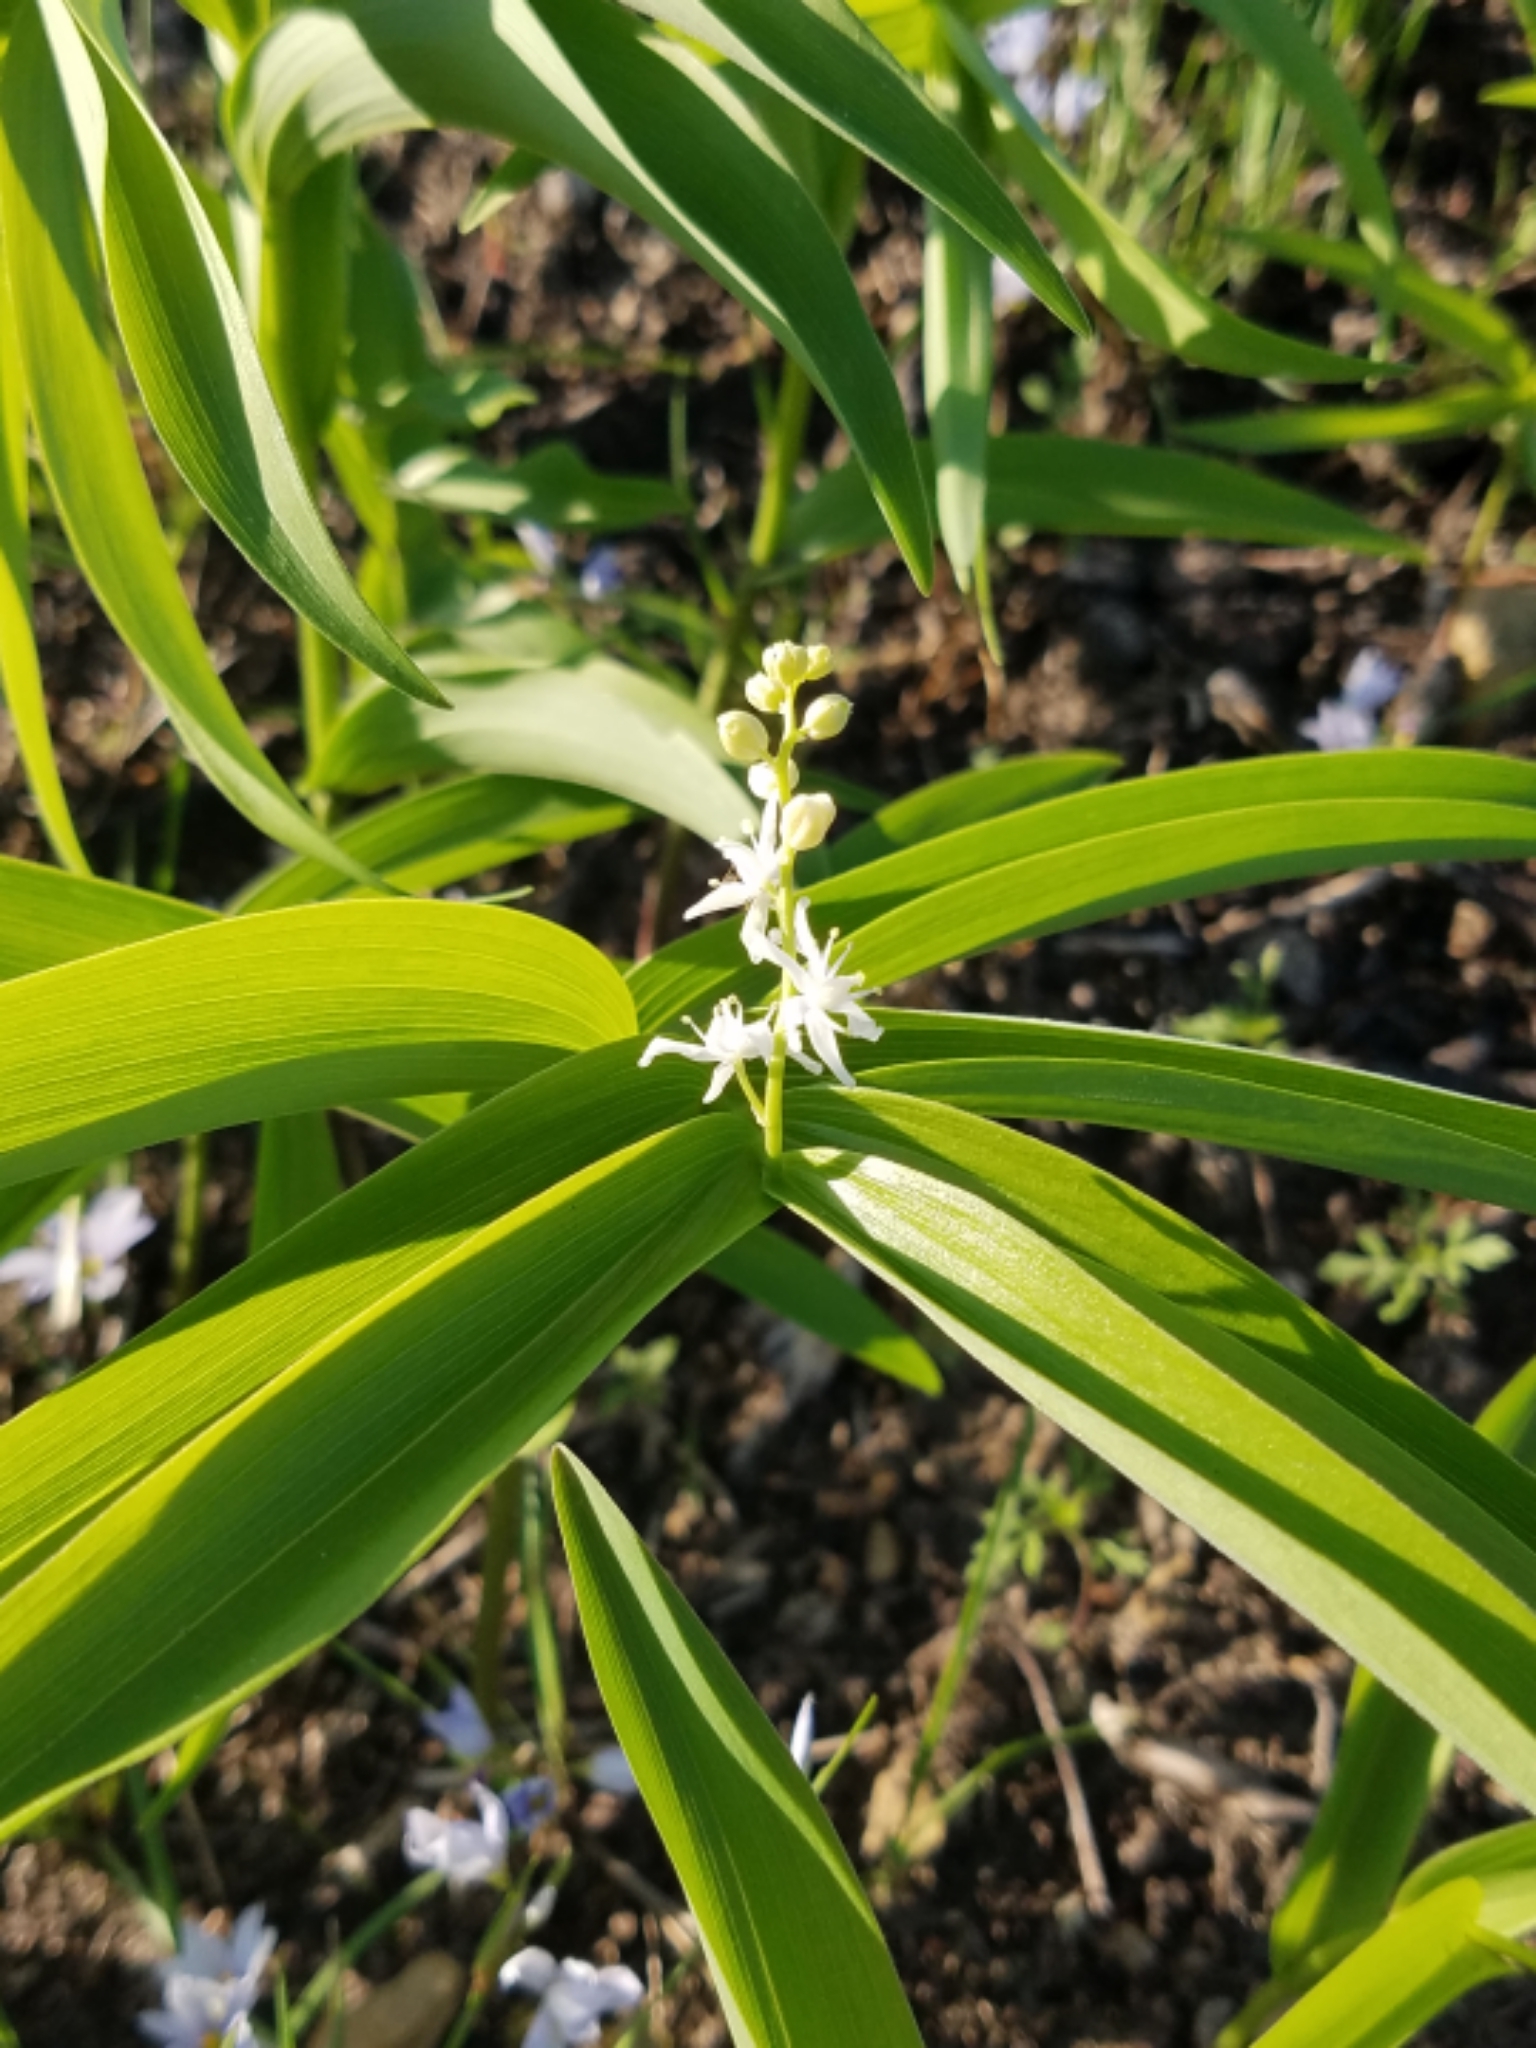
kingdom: Plantae
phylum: Tracheophyta
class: Liliopsida
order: Asparagales
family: Asparagaceae
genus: Maianthemum
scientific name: Maianthemum stellatum
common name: Little false solomon's seal
